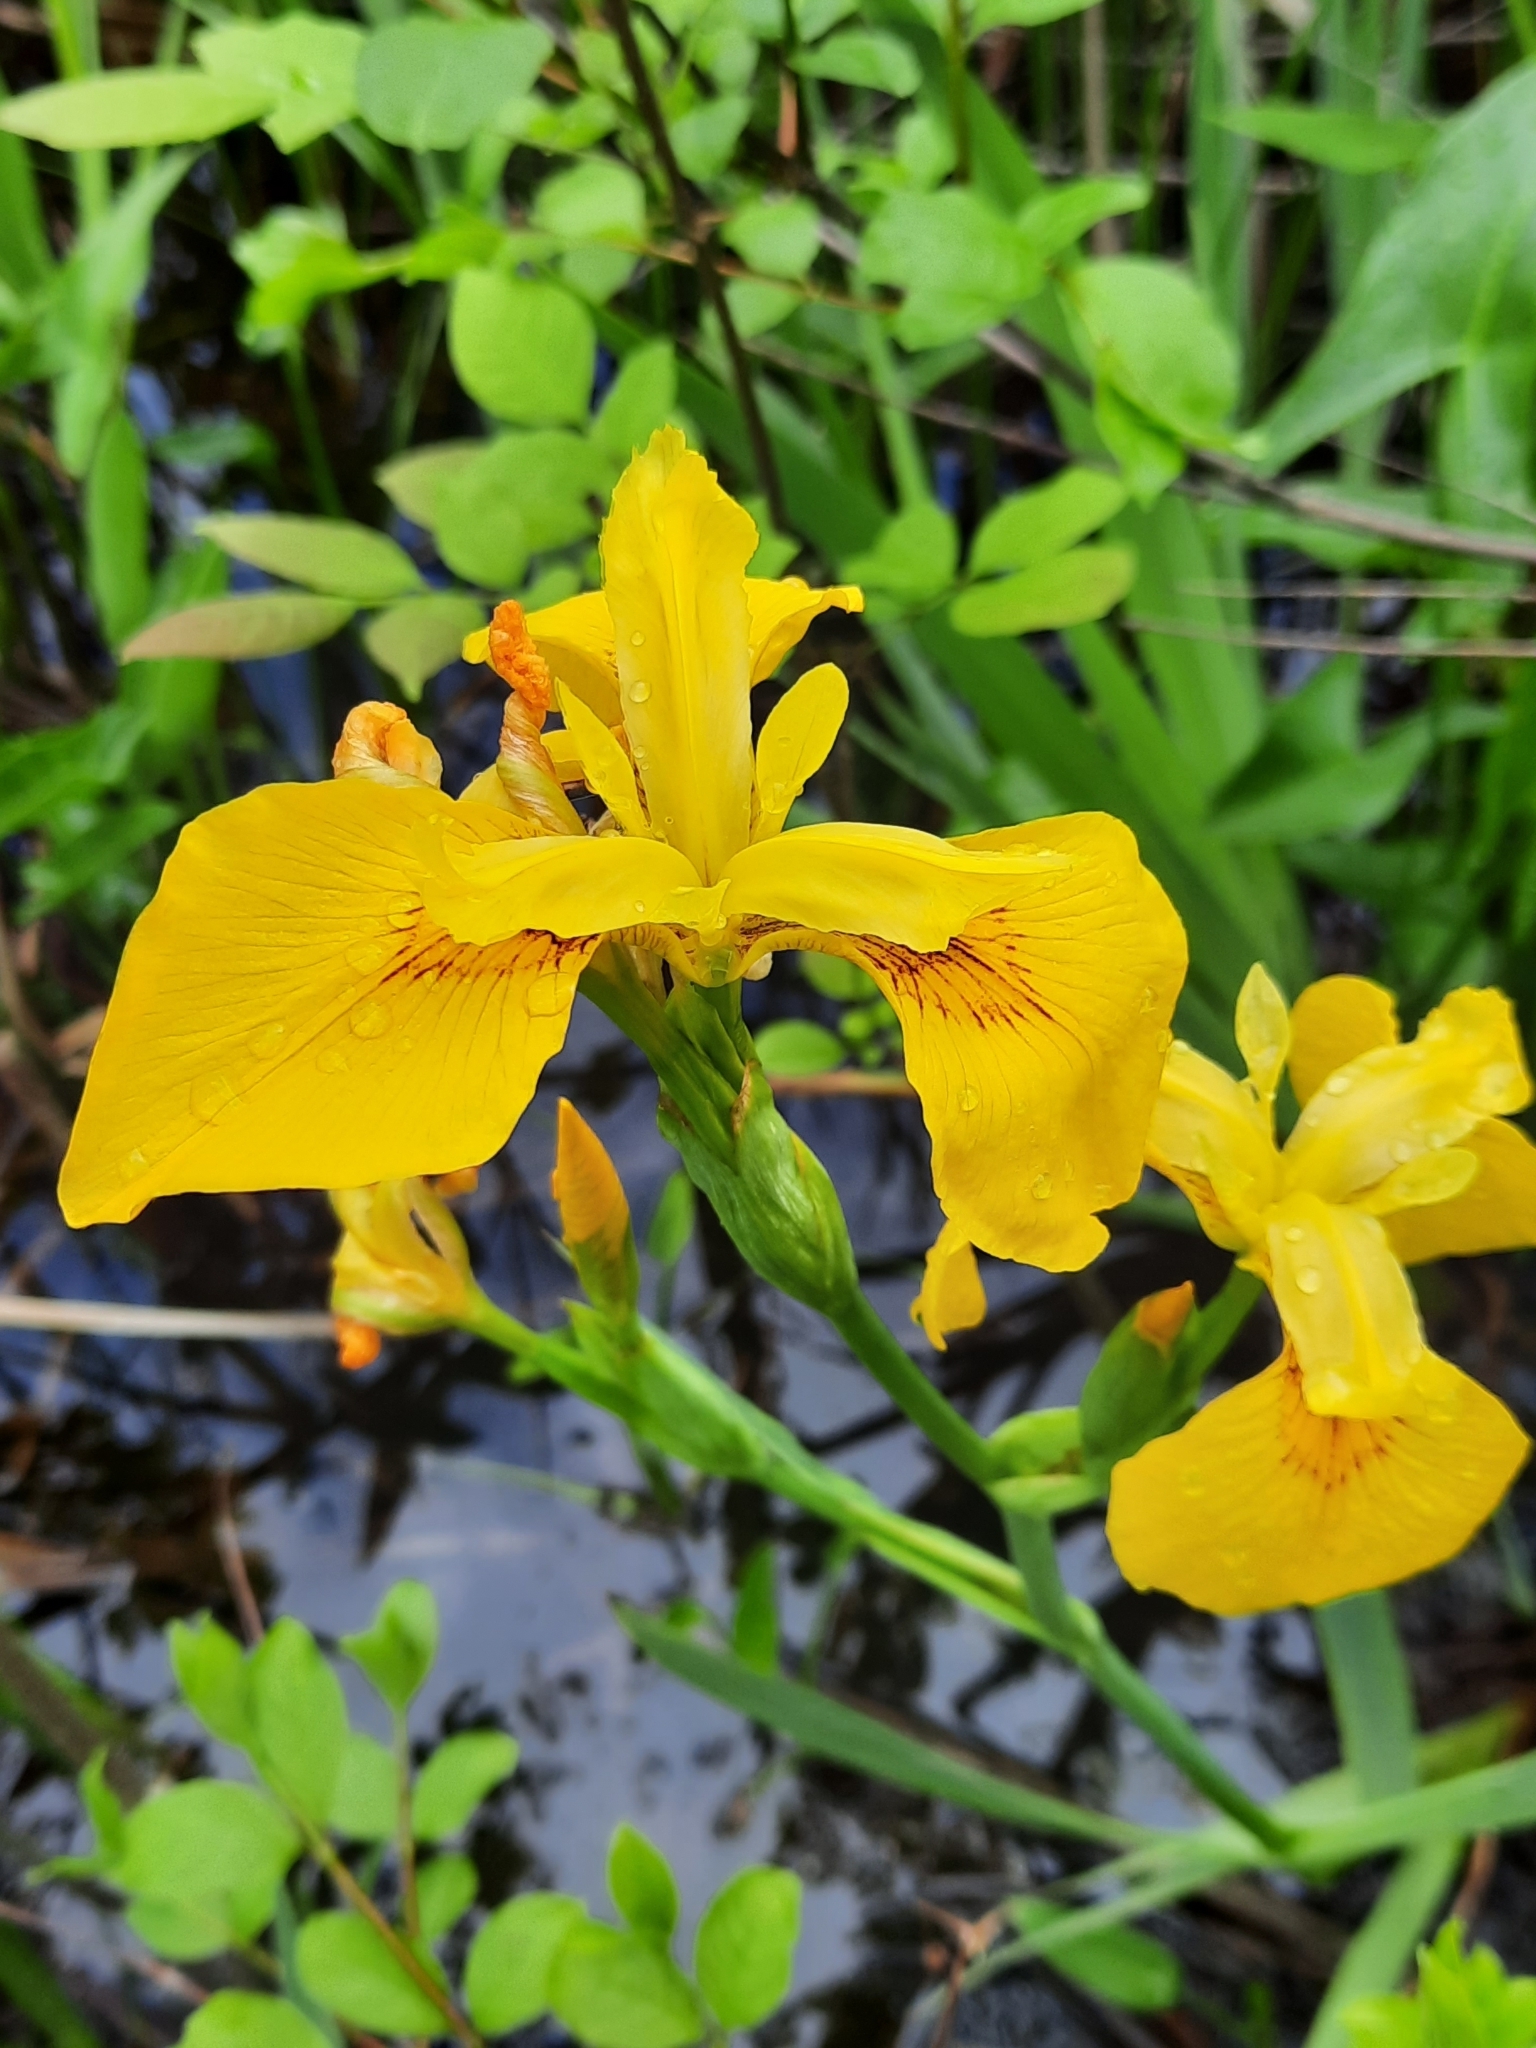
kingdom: Plantae
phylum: Tracheophyta
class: Liliopsida
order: Asparagales
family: Iridaceae
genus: Iris
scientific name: Iris pseudacorus
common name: Yellow flag
